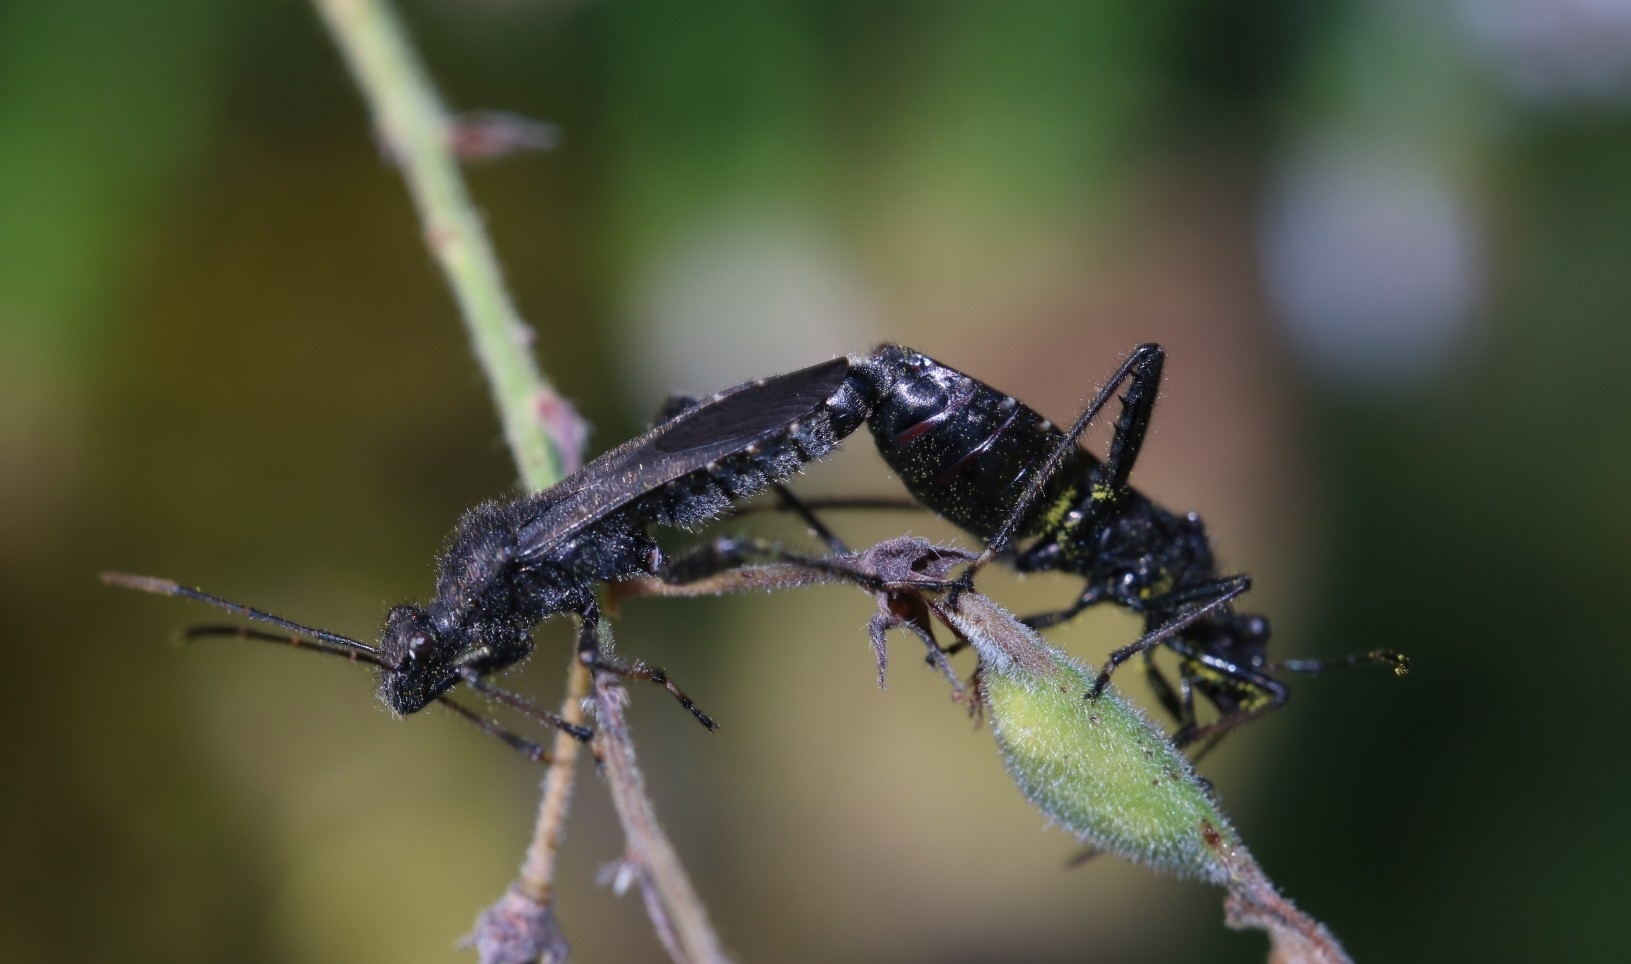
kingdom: Animalia
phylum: Arthropoda
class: Insecta
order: Hemiptera
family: Alydidae
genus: Alydus
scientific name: Alydus eurinus
